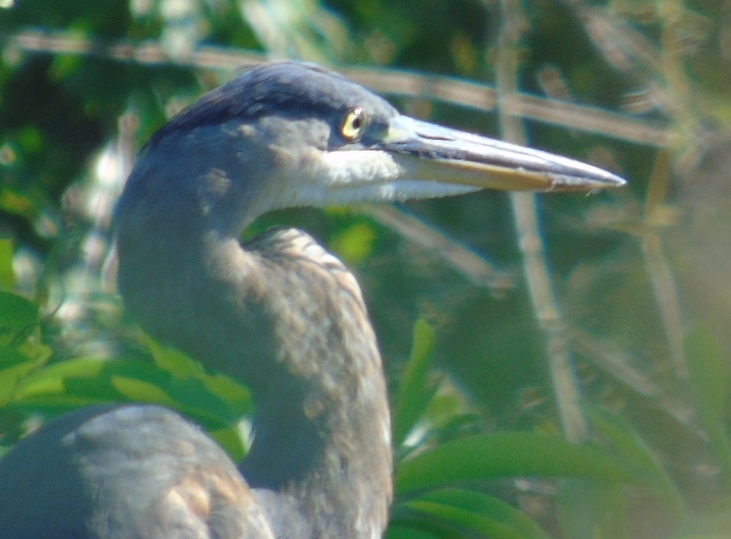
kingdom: Animalia
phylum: Chordata
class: Aves
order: Pelecaniformes
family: Ardeidae
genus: Ardea
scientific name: Ardea herodias
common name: Great blue heron
